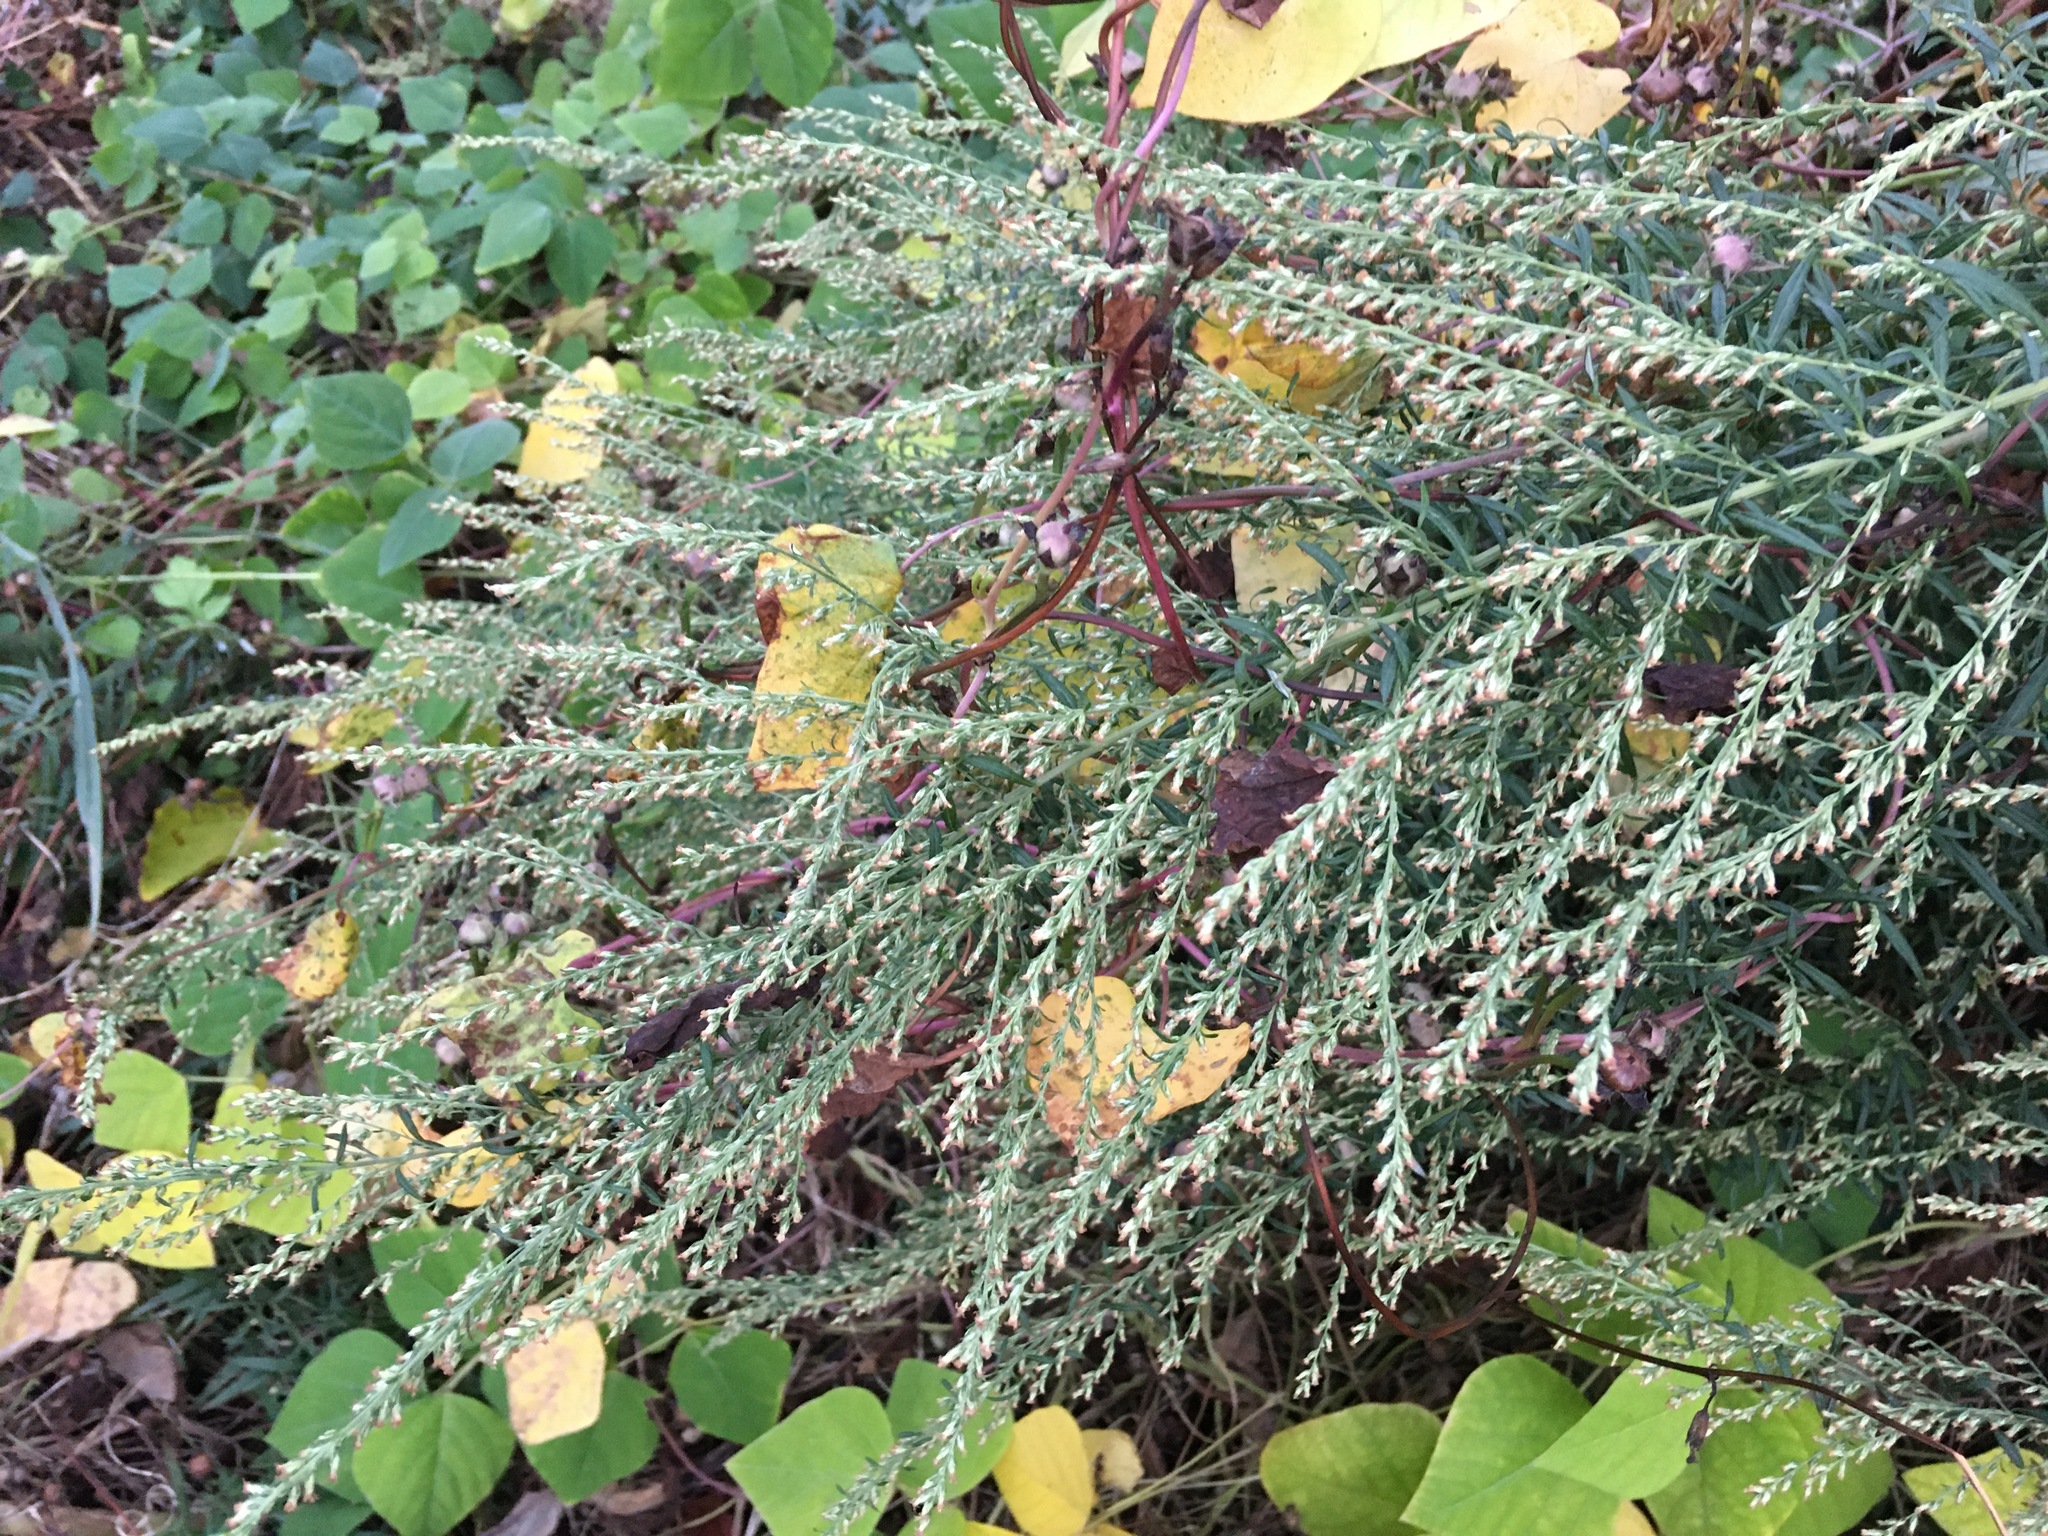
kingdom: Plantae
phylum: Tracheophyta
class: Magnoliopsida
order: Asterales
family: Asteraceae
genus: Artemisia
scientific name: Artemisia vulgaris
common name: Mugwort
